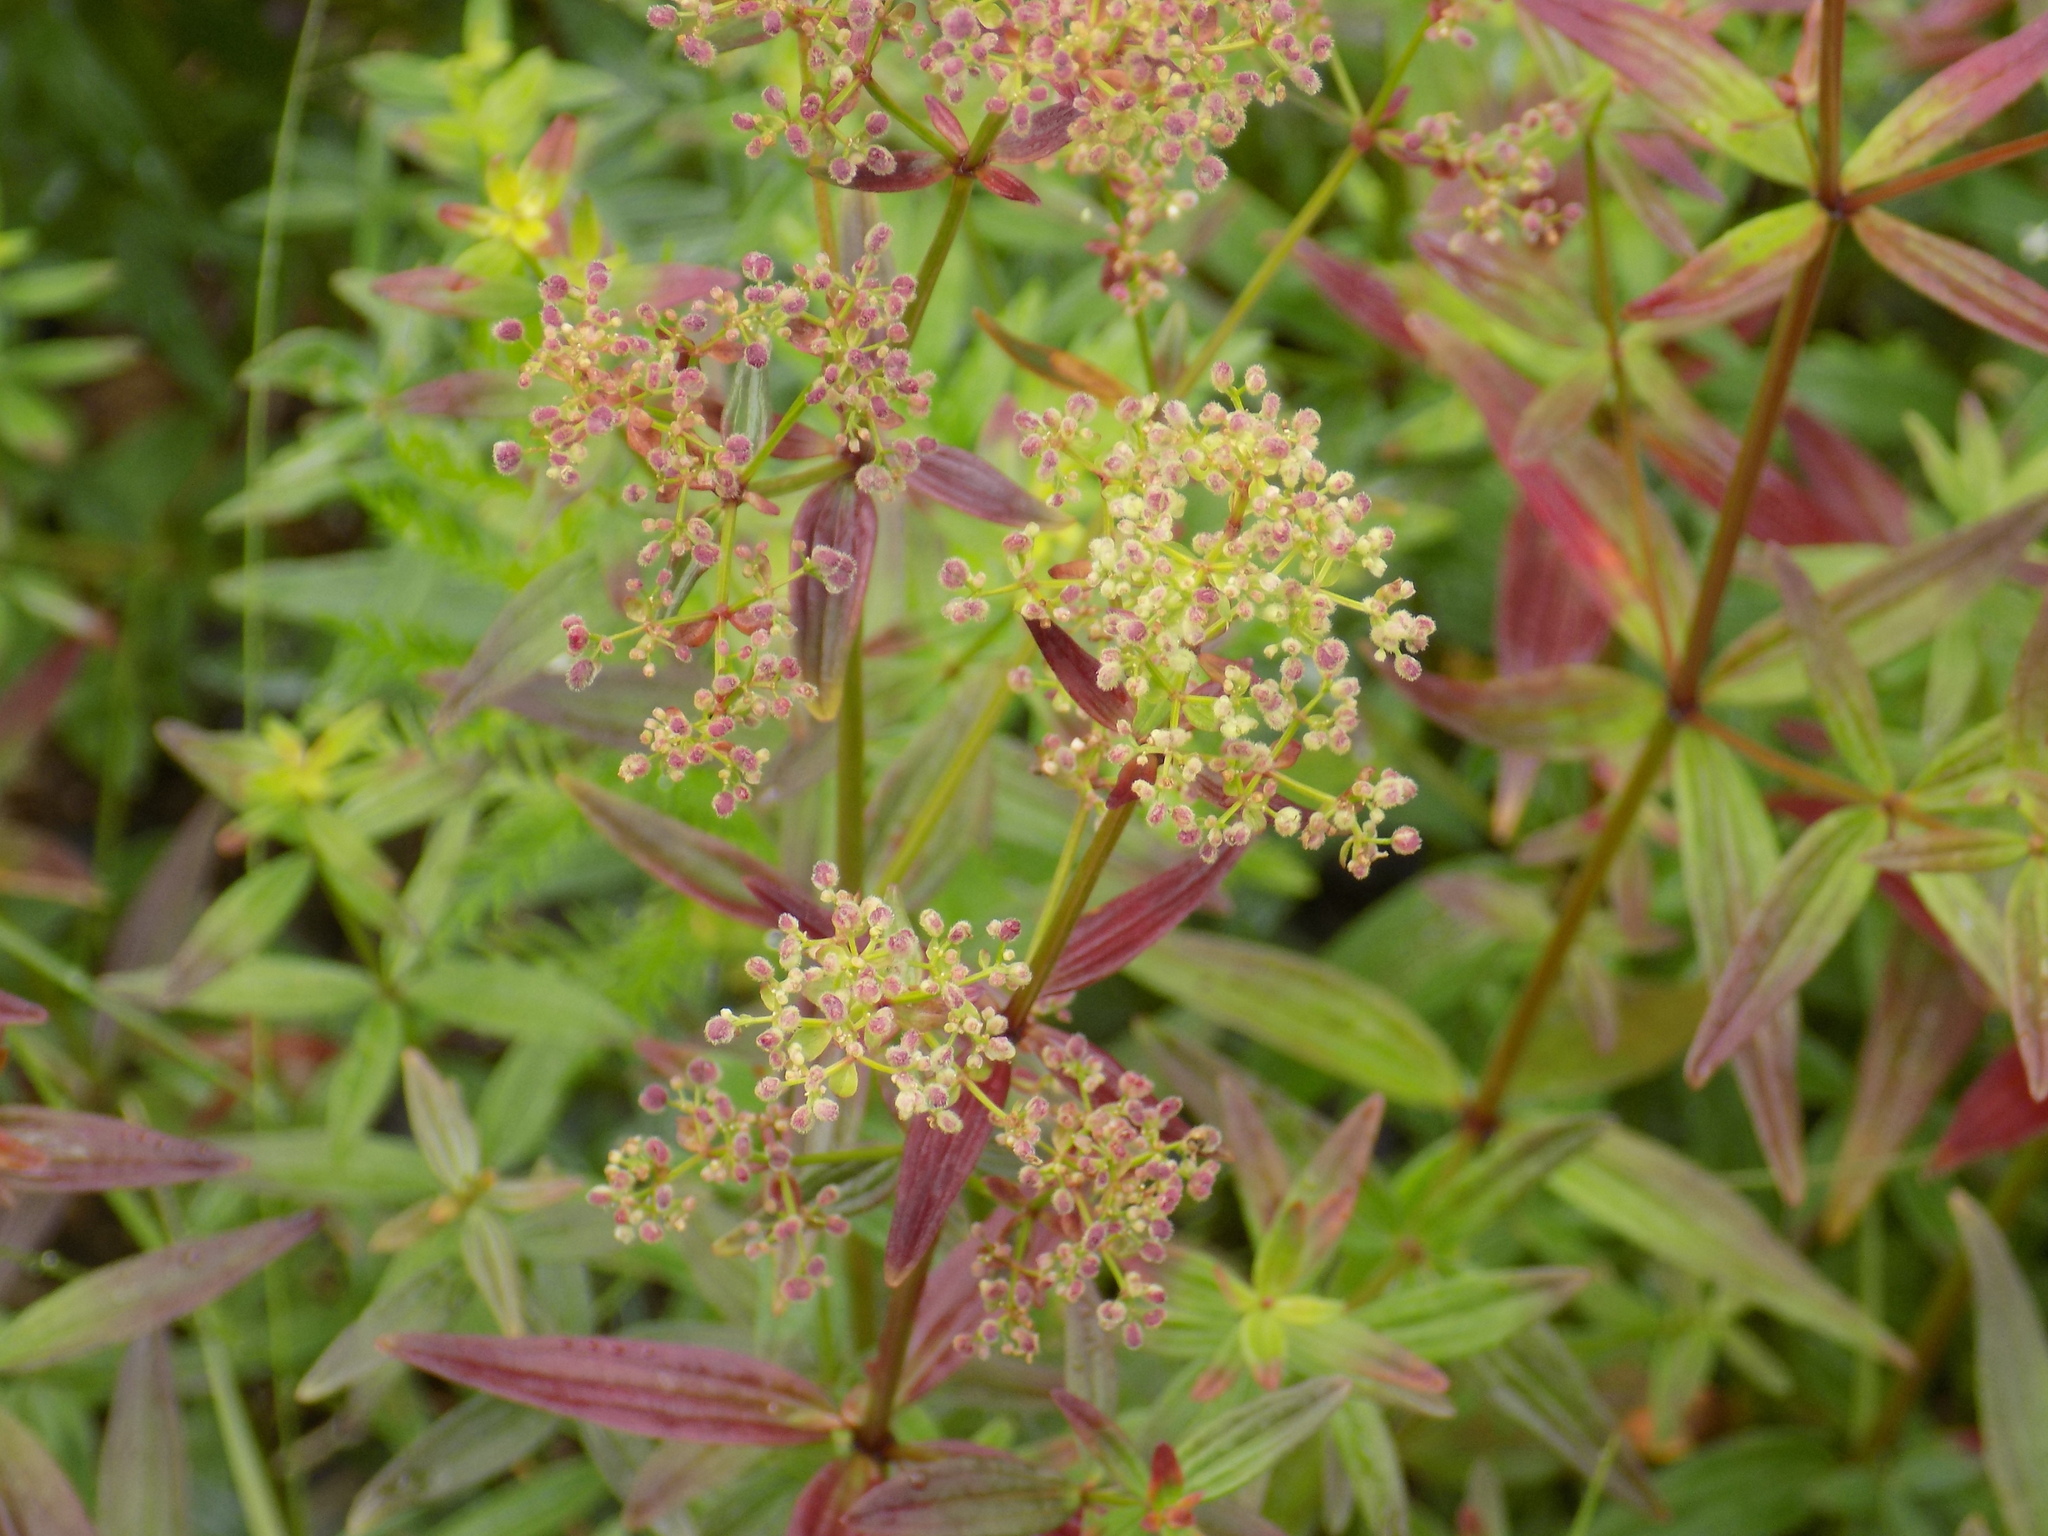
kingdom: Plantae
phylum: Tracheophyta
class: Magnoliopsida
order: Gentianales
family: Rubiaceae
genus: Galium
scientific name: Galium boreale
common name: Northern bedstraw
